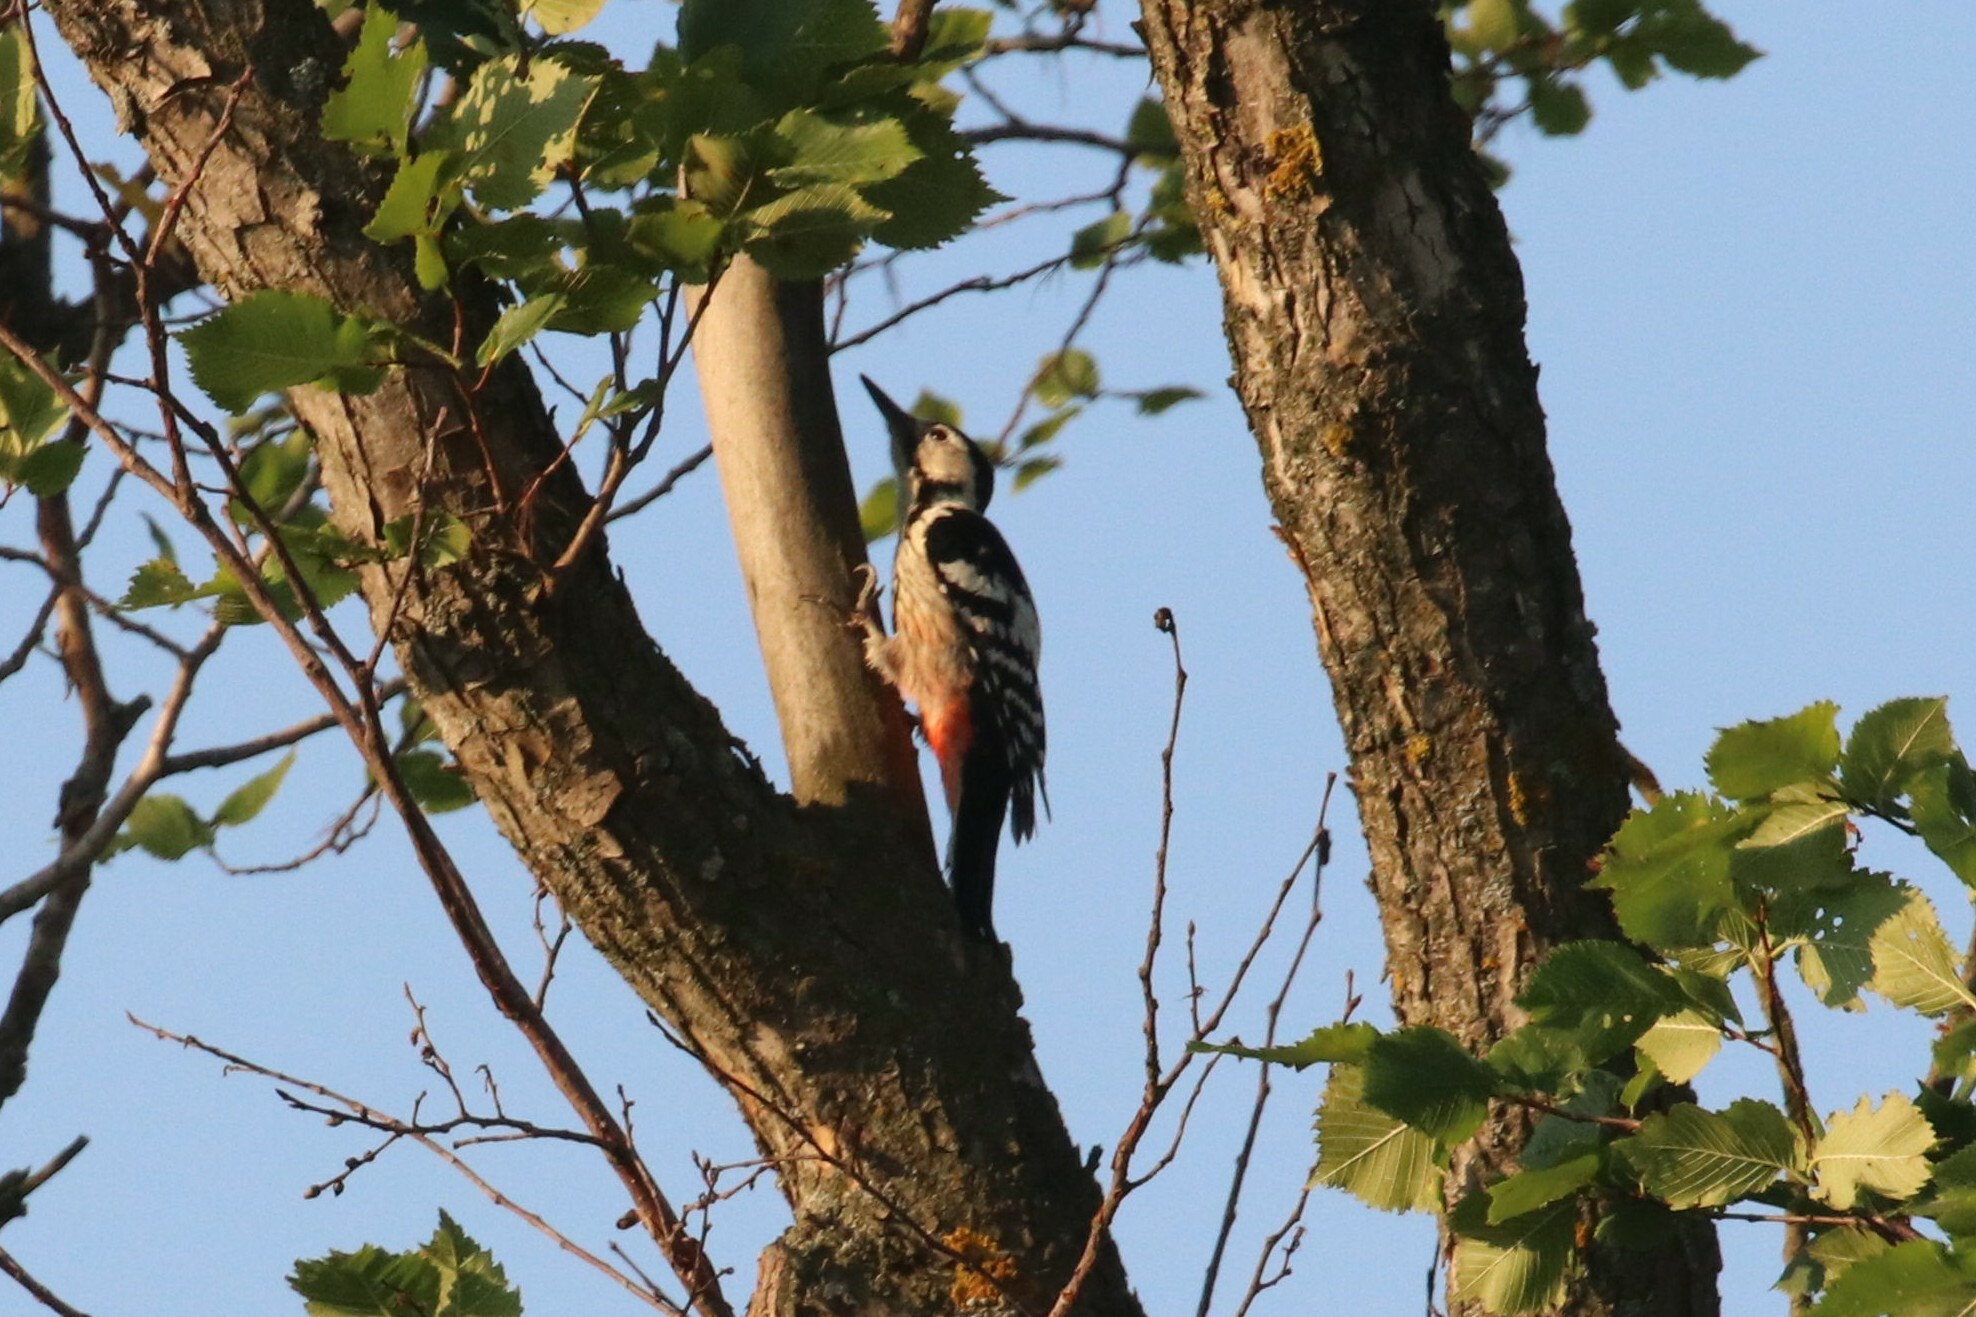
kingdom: Animalia
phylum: Chordata
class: Aves
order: Piciformes
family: Picidae
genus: Dendrocopos
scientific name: Dendrocopos leucotos
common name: White-backed woodpecker
